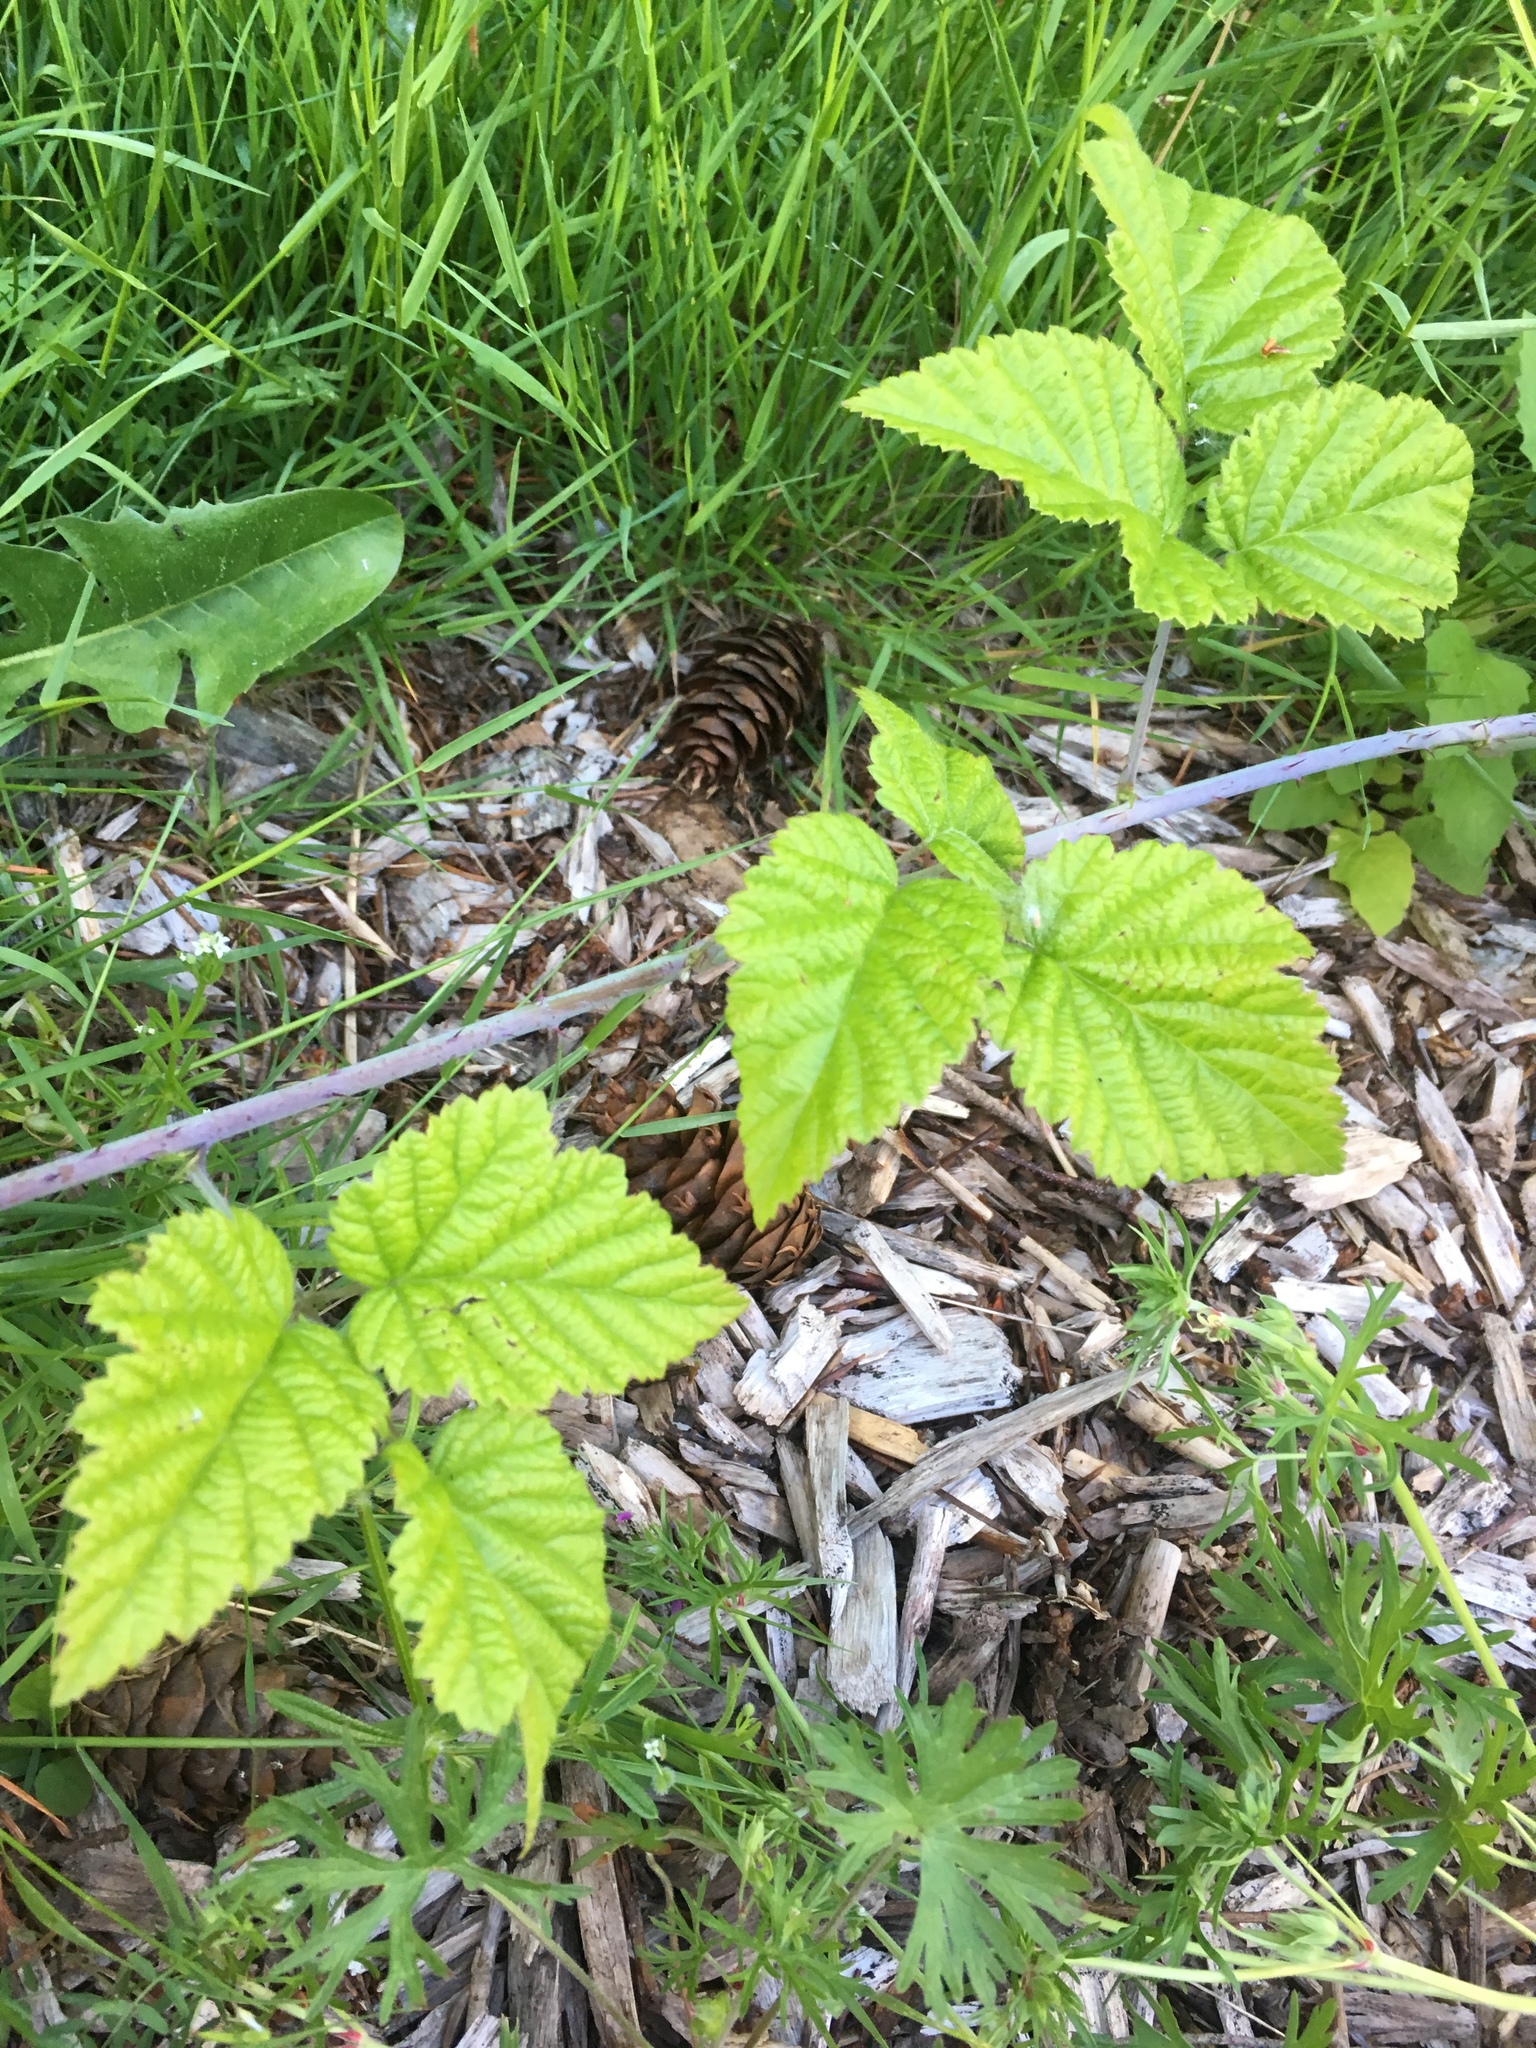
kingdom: Plantae
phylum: Tracheophyta
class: Magnoliopsida
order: Rosales
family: Rosaceae
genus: Rubus
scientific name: Rubus ursinus
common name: Pacific blackberry
